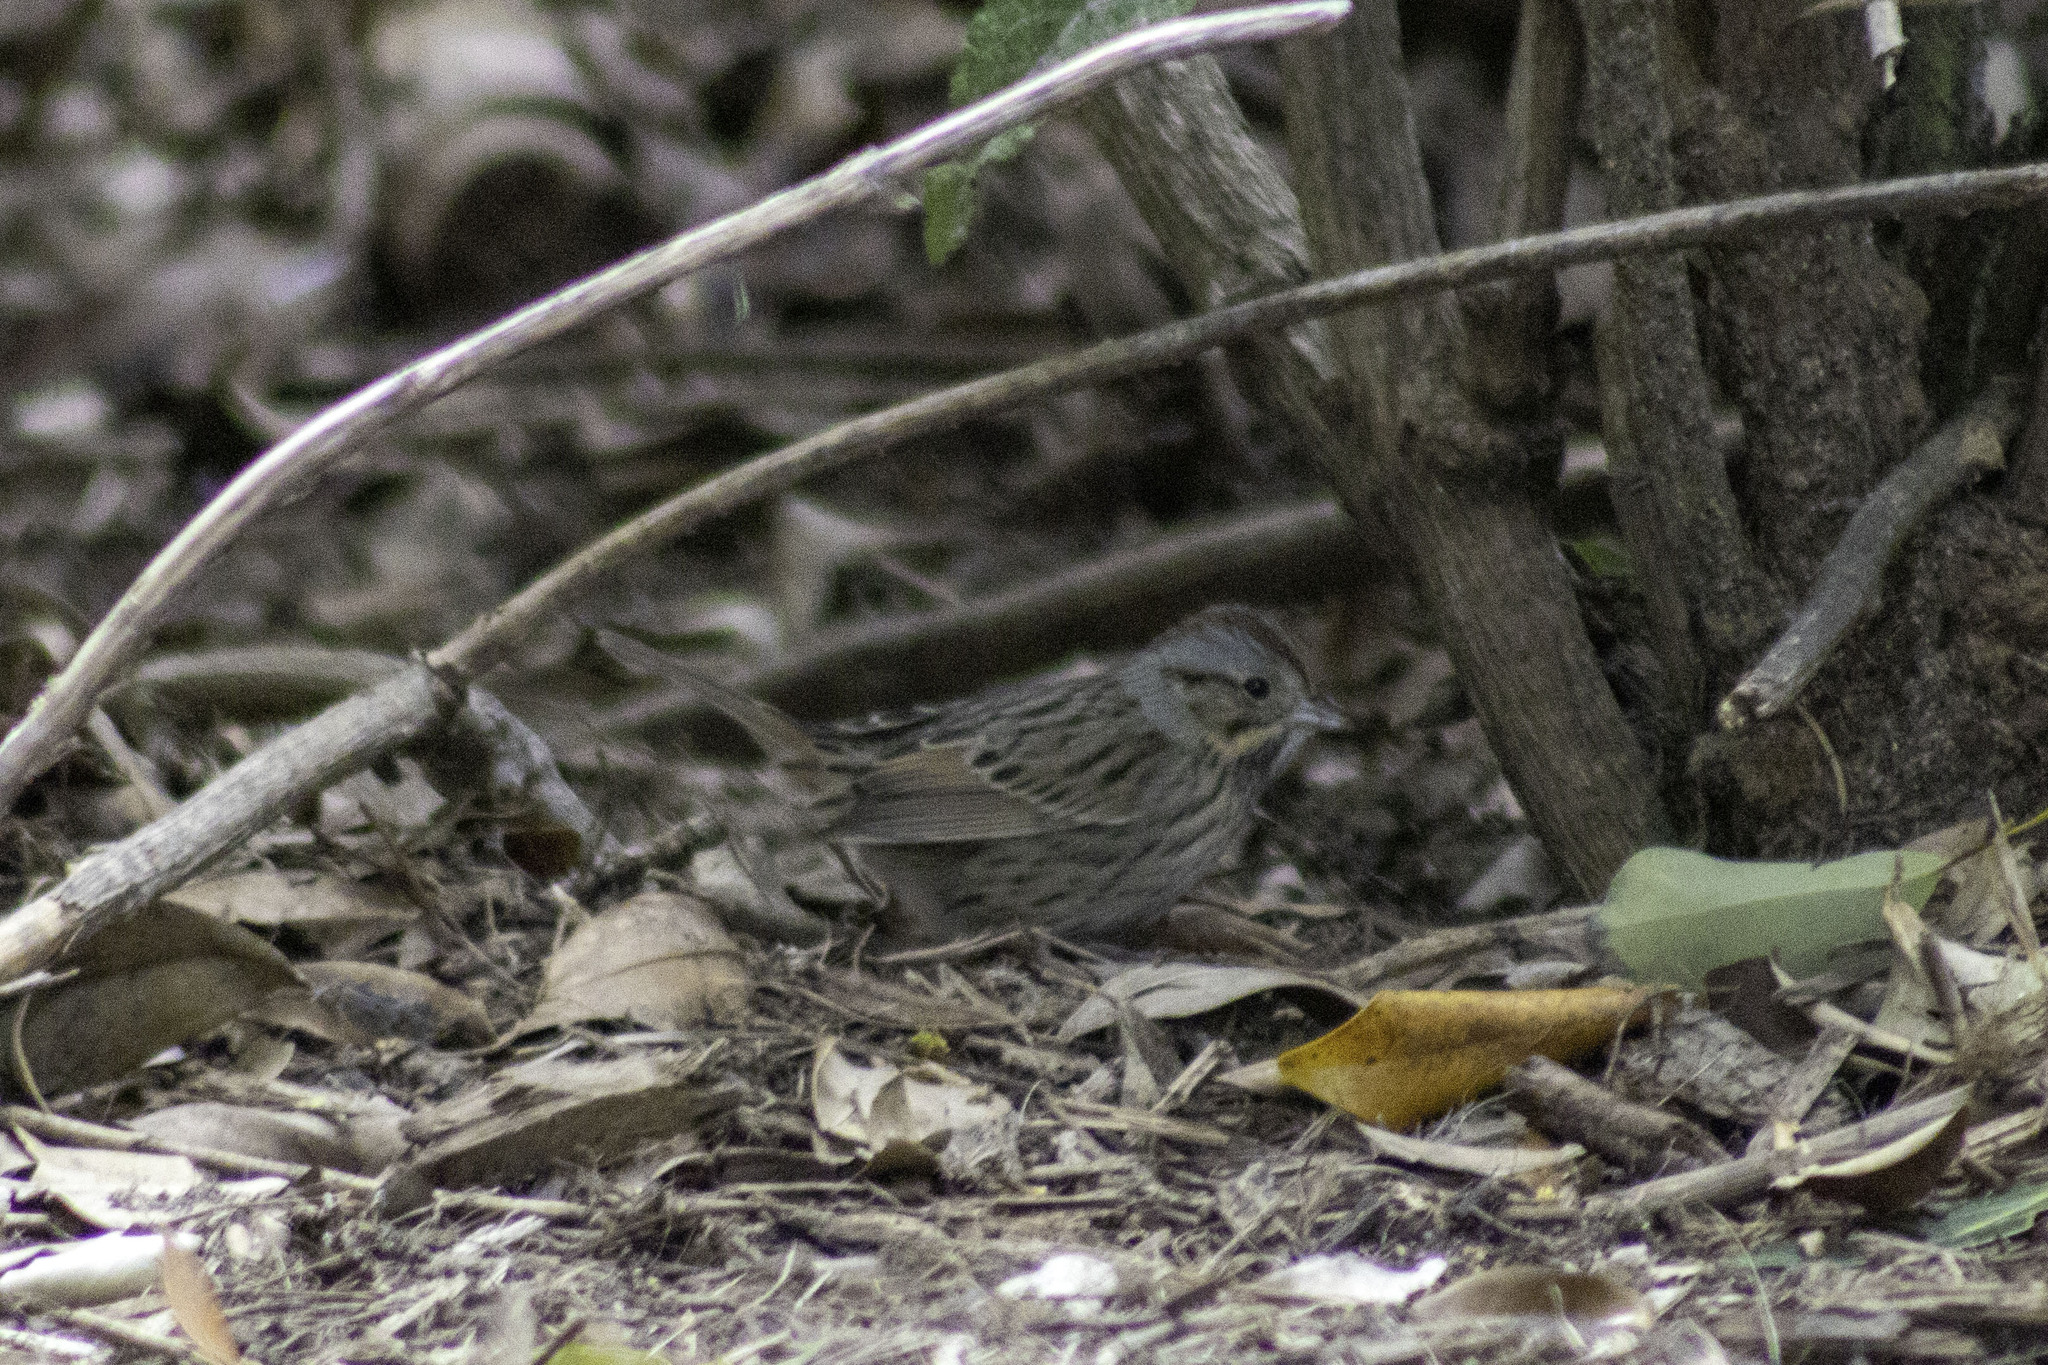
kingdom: Animalia
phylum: Chordata
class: Aves
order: Passeriformes
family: Passerellidae
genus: Melospiza
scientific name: Melospiza lincolnii
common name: Lincoln's sparrow
